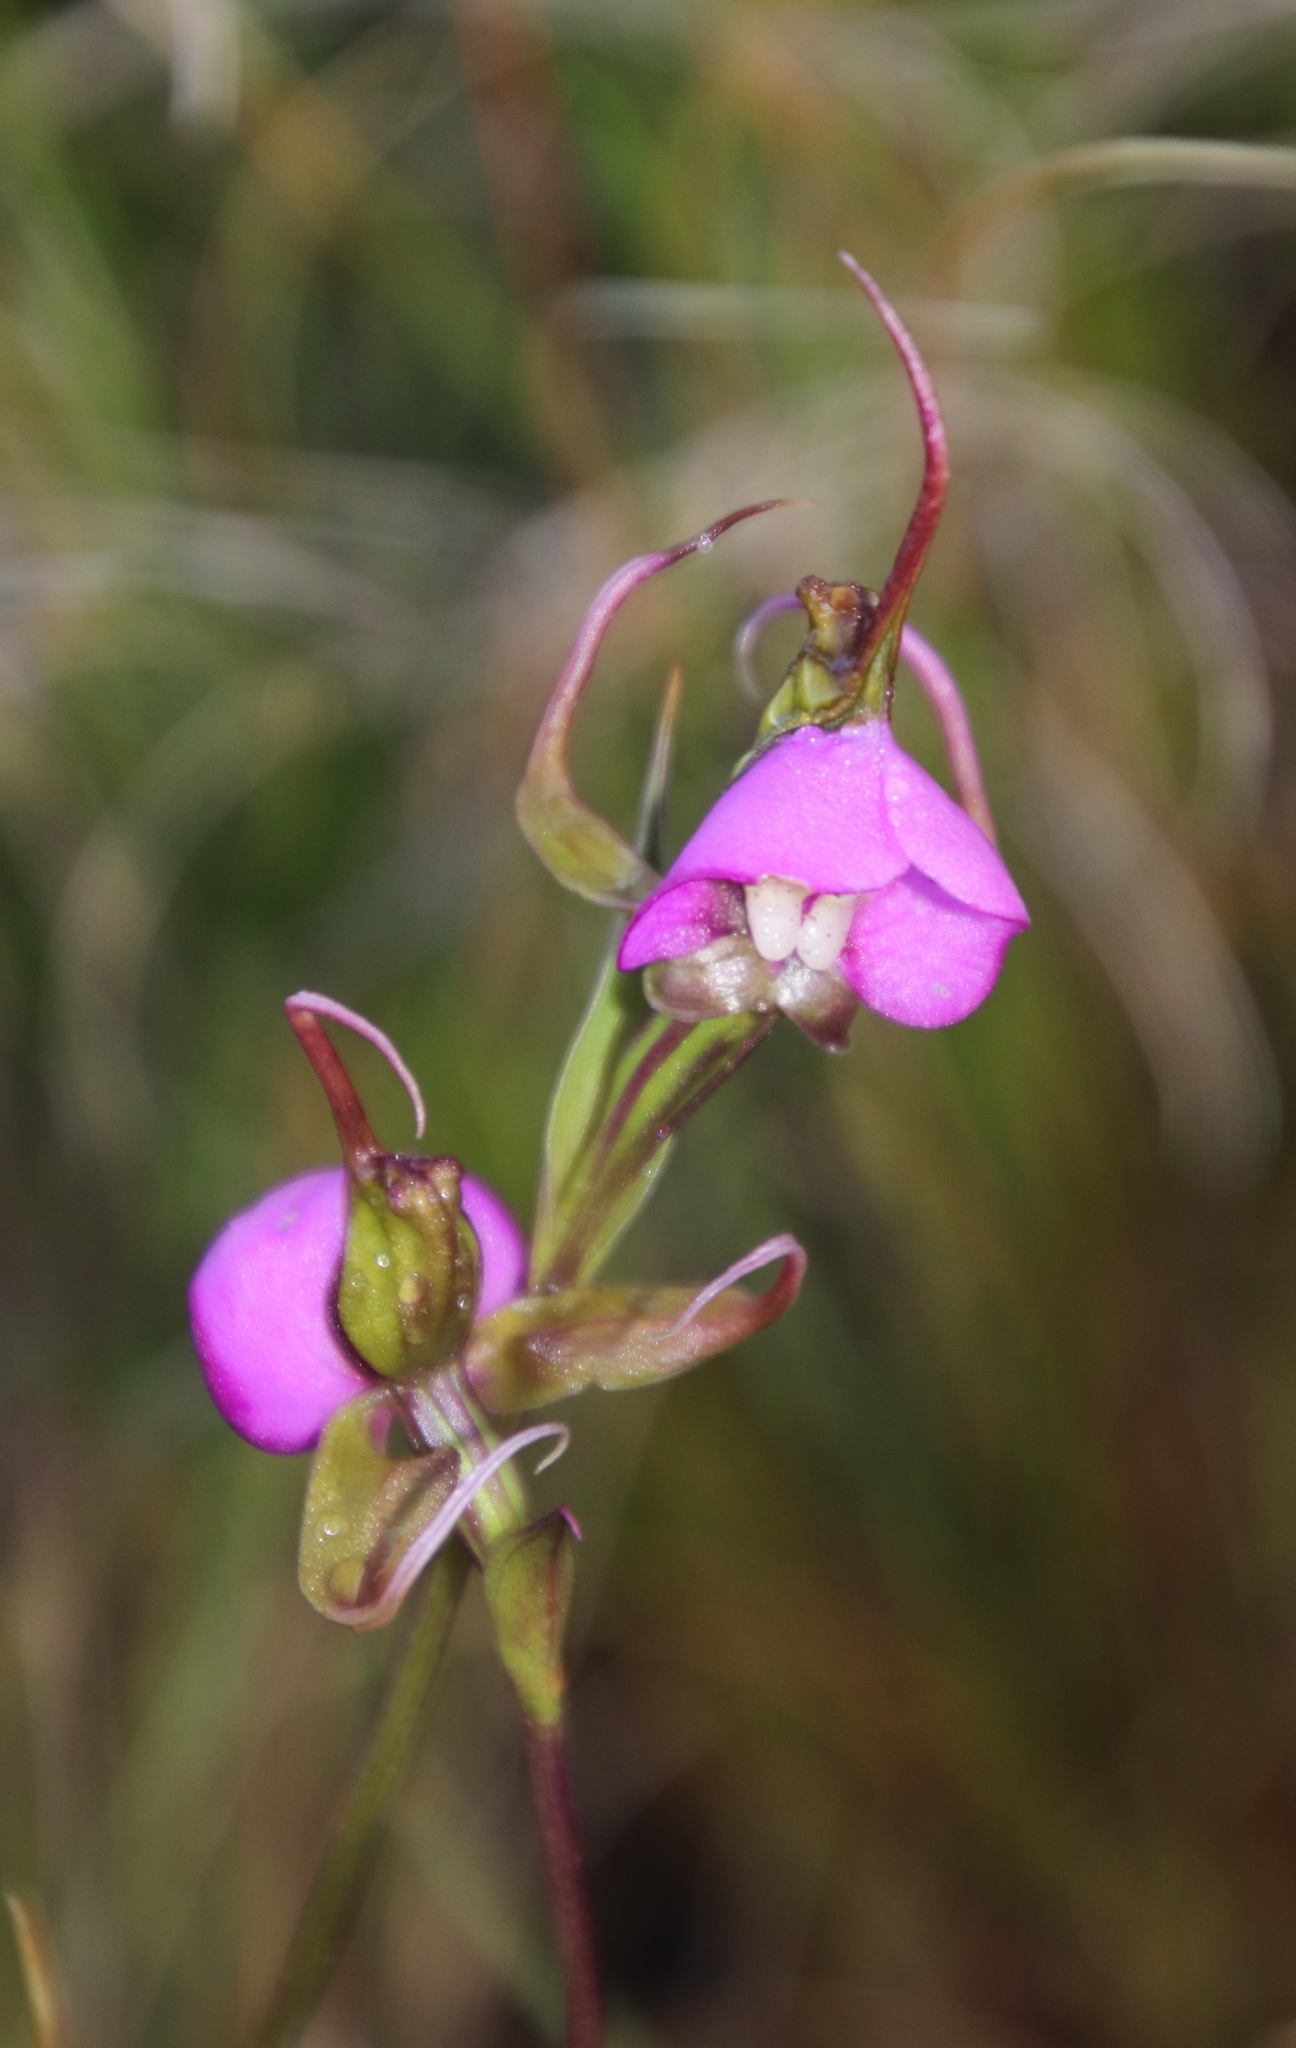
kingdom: Plantae
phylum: Tracheophyta
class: Liliopsida
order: Asparagales
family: Orchidaceae
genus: Disperis
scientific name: Disperis capensis
